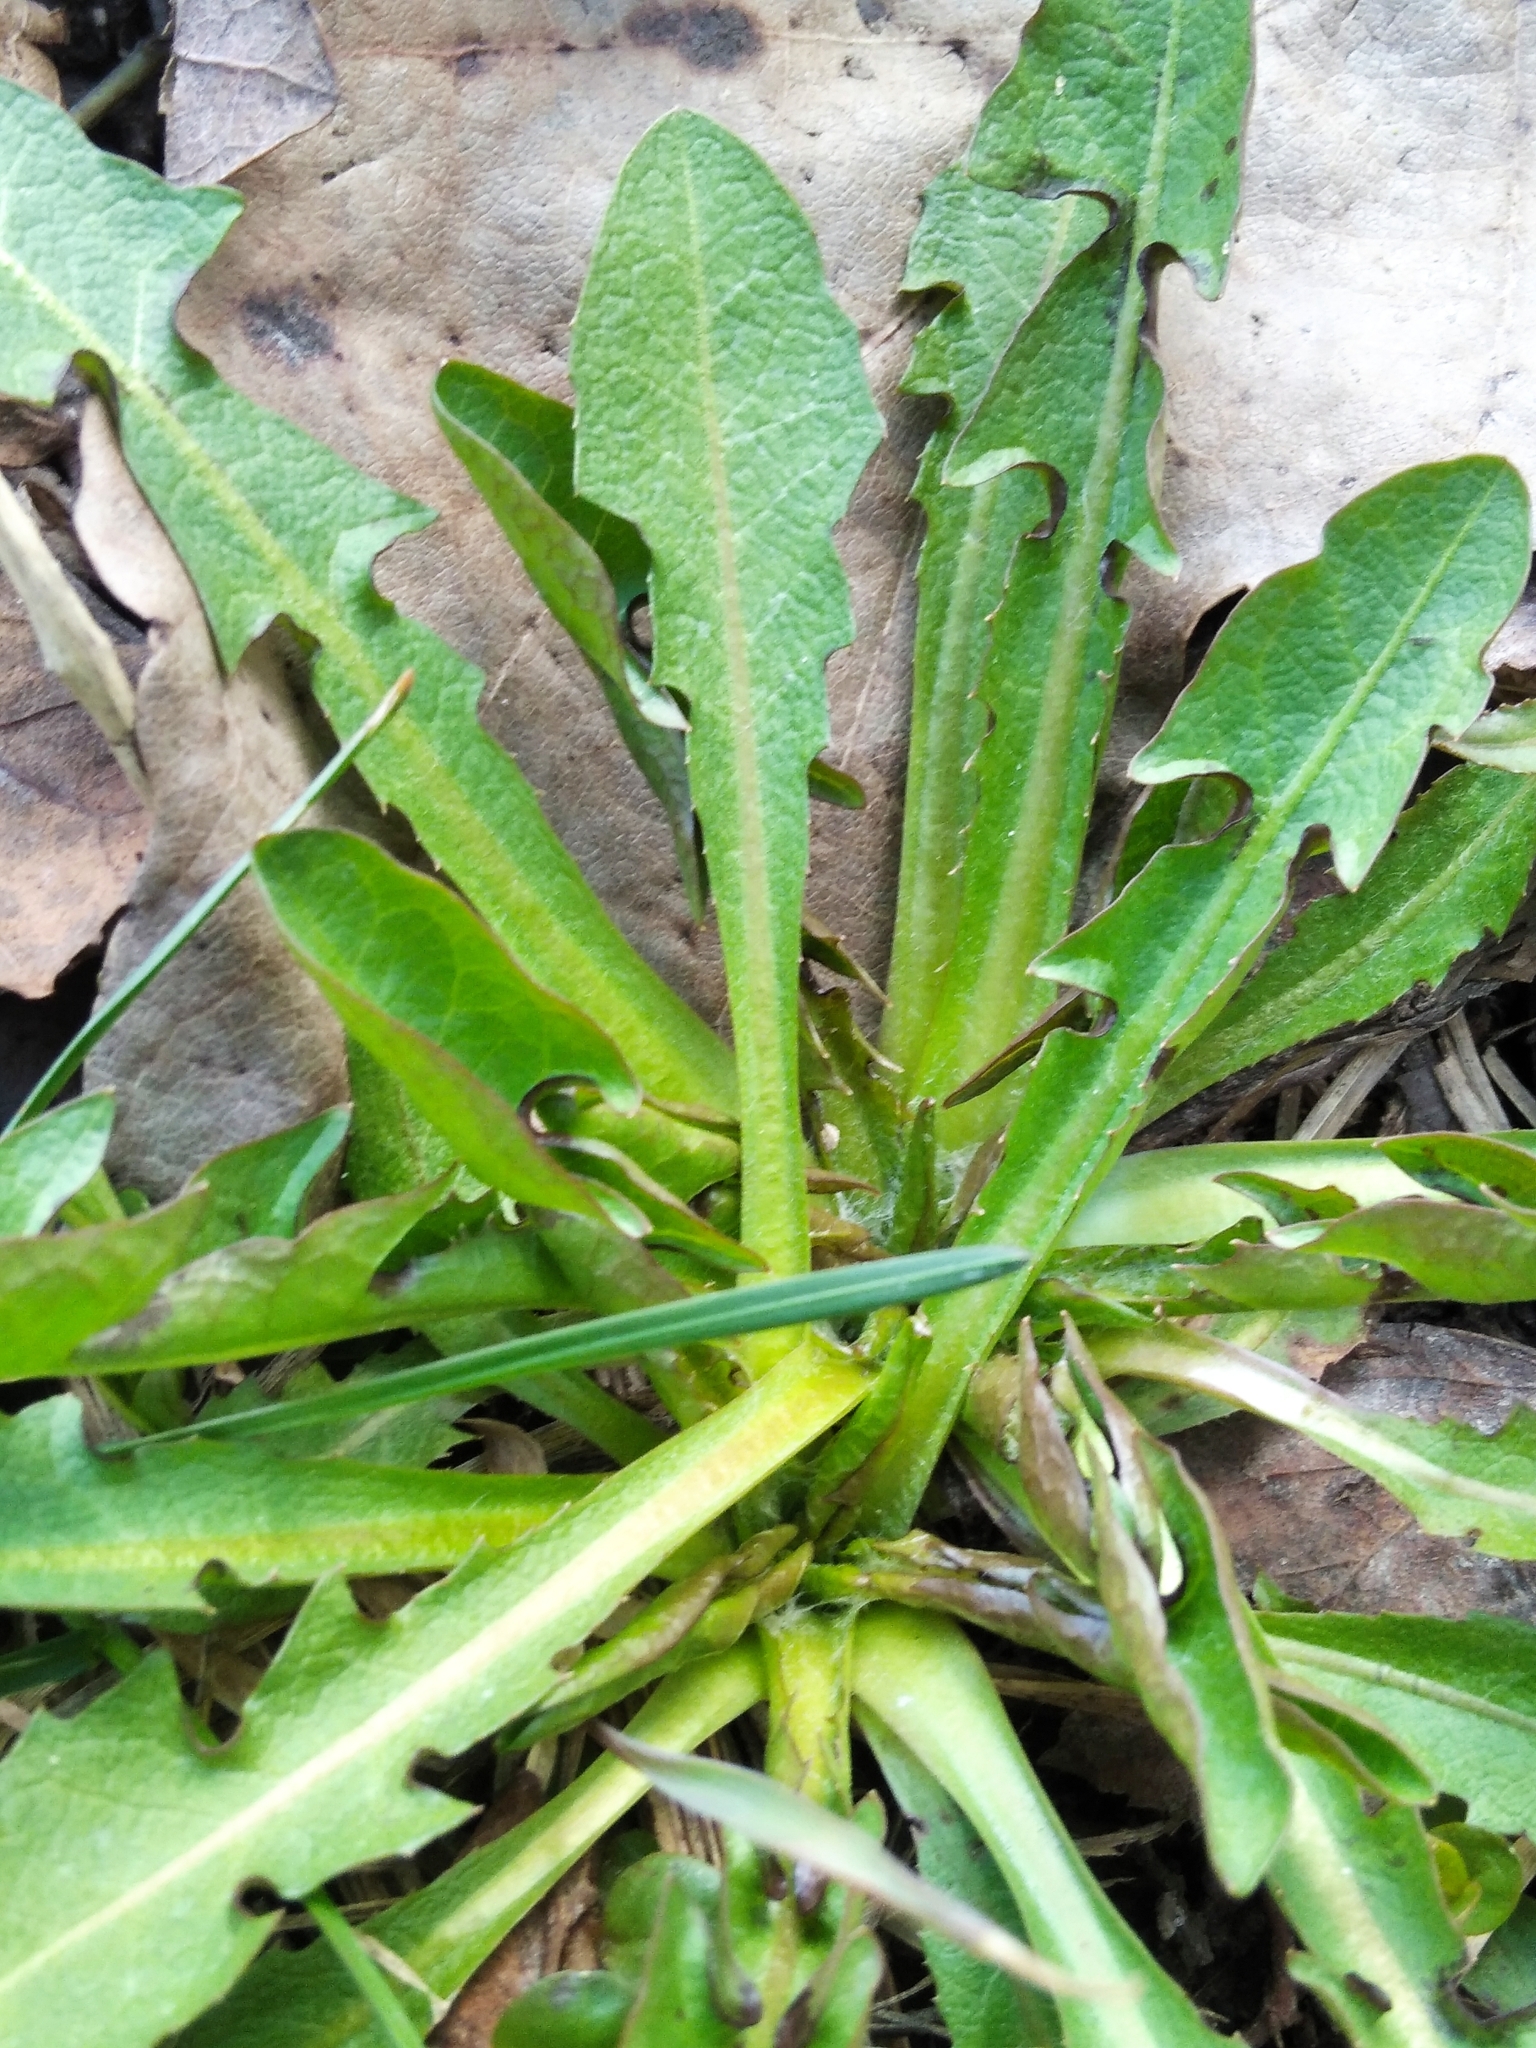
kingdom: Plantae
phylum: Tracheophyta
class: Magnoliopsida
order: Asterales
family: Asteraceae
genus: Taraxacum
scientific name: Taraxacum officinale
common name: Common dandelion
